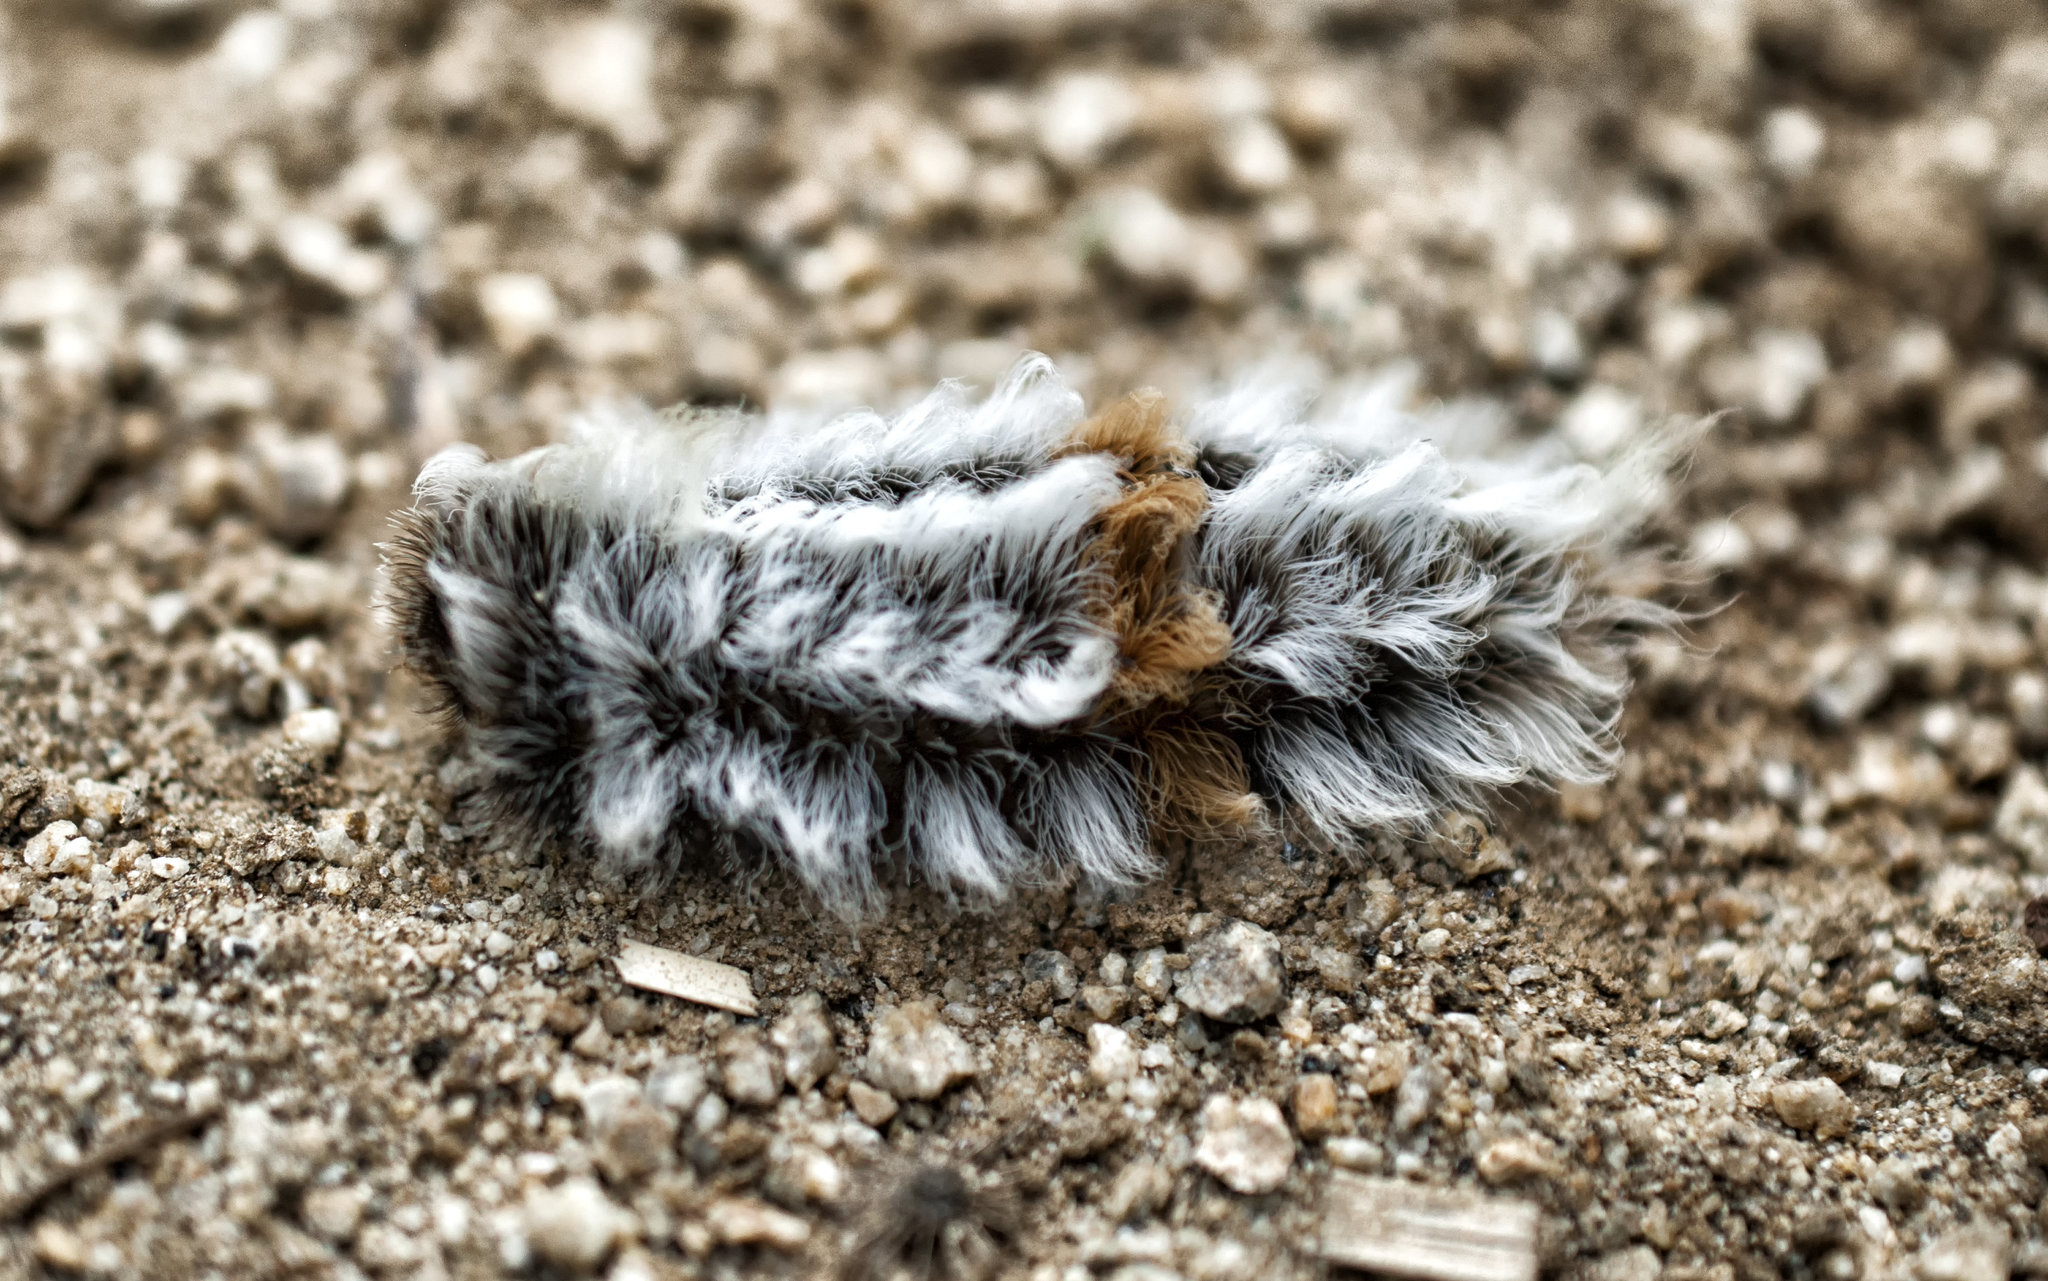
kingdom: Animalia
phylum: Arthropoda
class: Insecta
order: Lepidoptera
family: Megalopygidae
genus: Megalopyge
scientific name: Megalopyge defoliata
